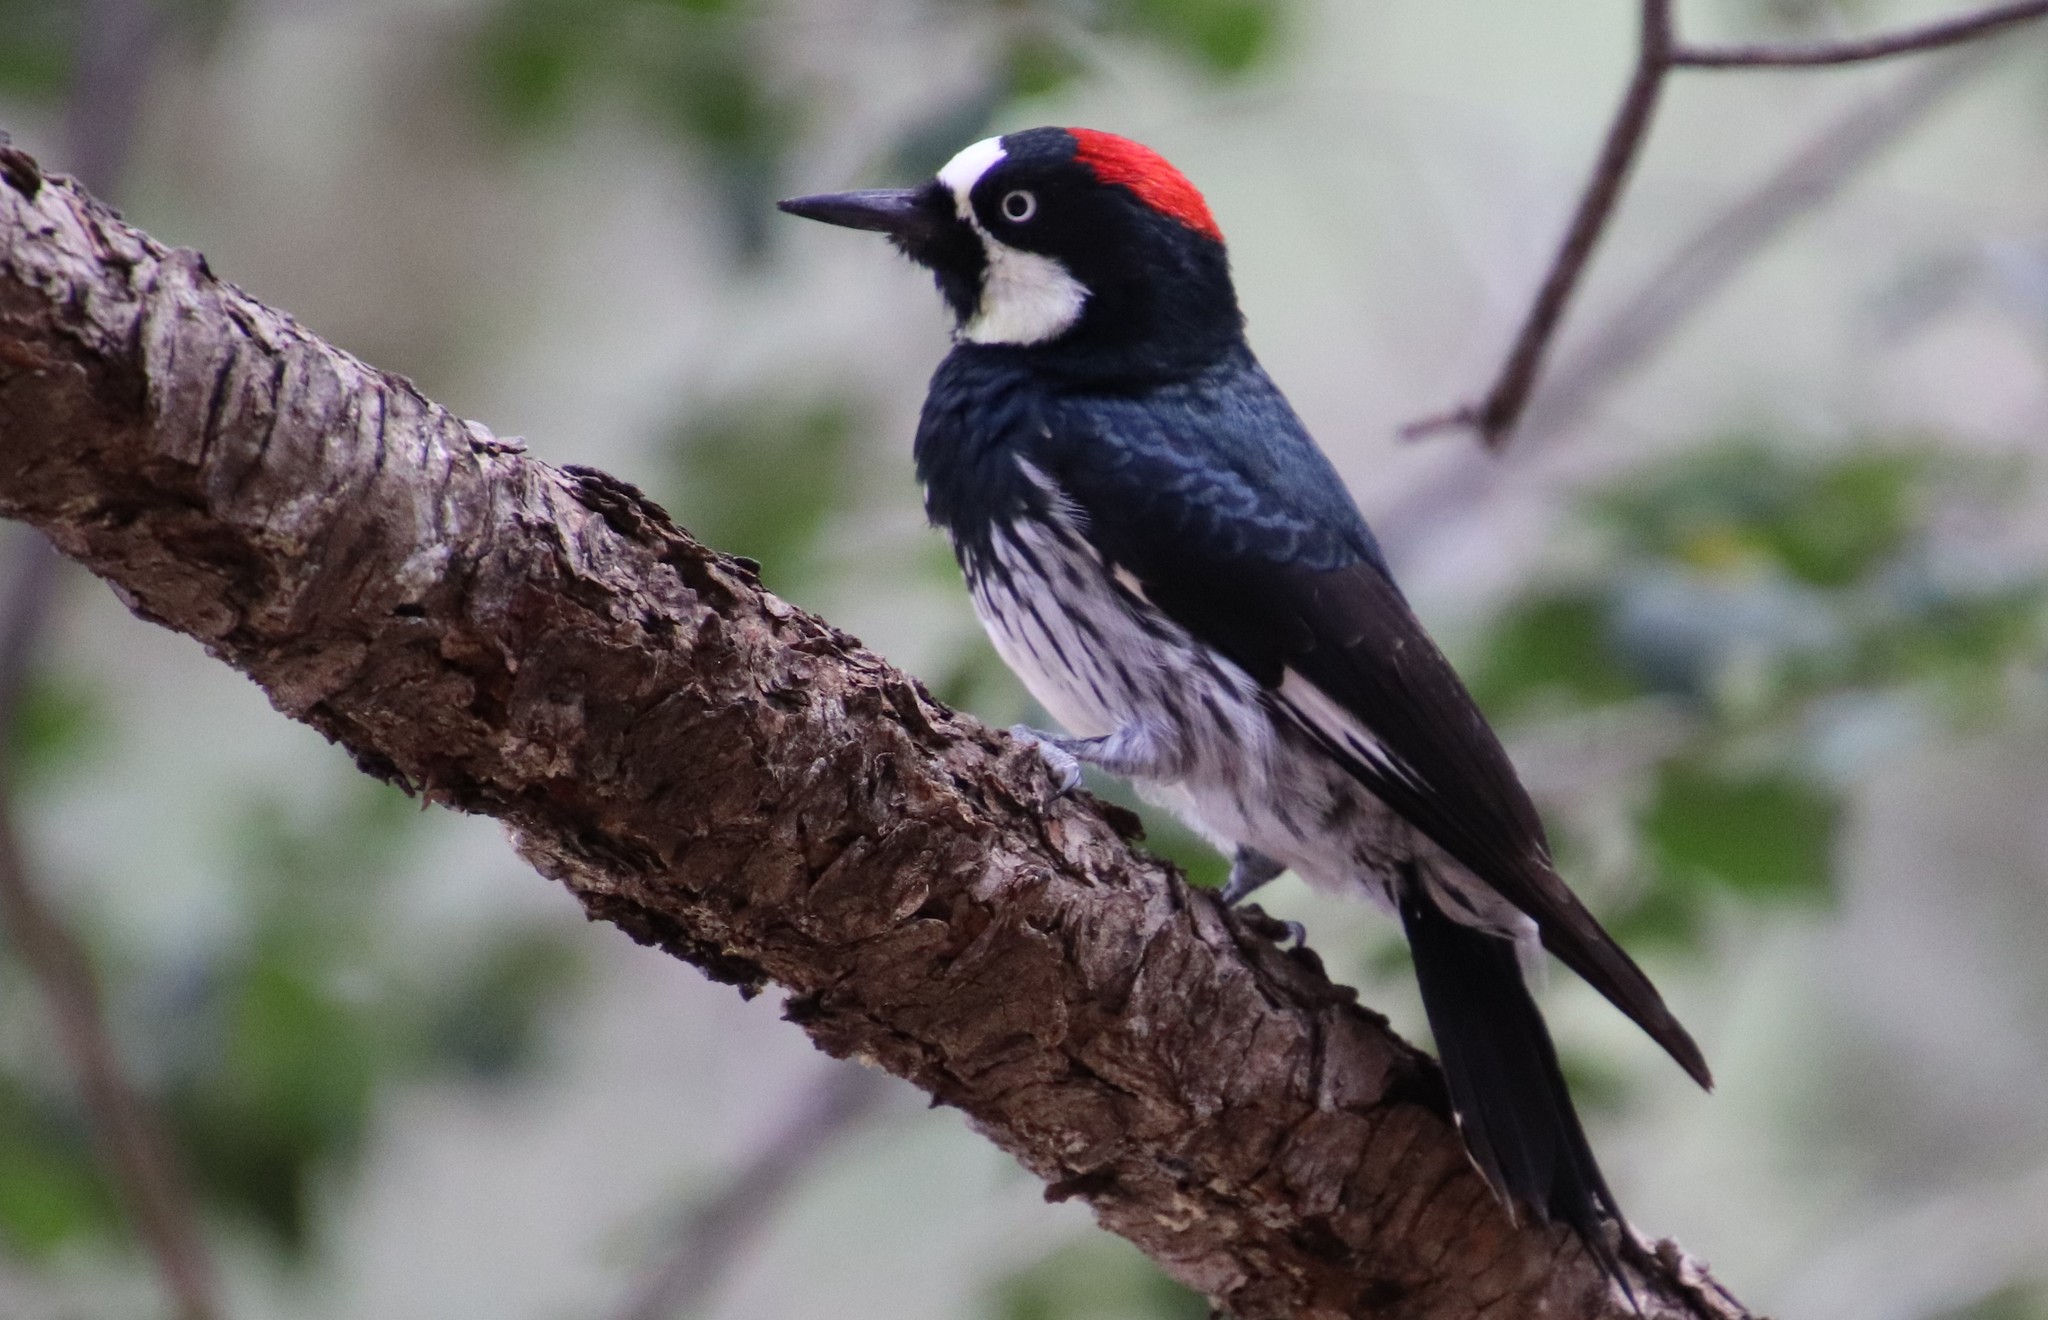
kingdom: Animalia
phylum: Chordata
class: Aves
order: Piciformes
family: Picidae
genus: Melanerpes
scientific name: Melanerpes formicivorus
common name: Acorn woodpecker
